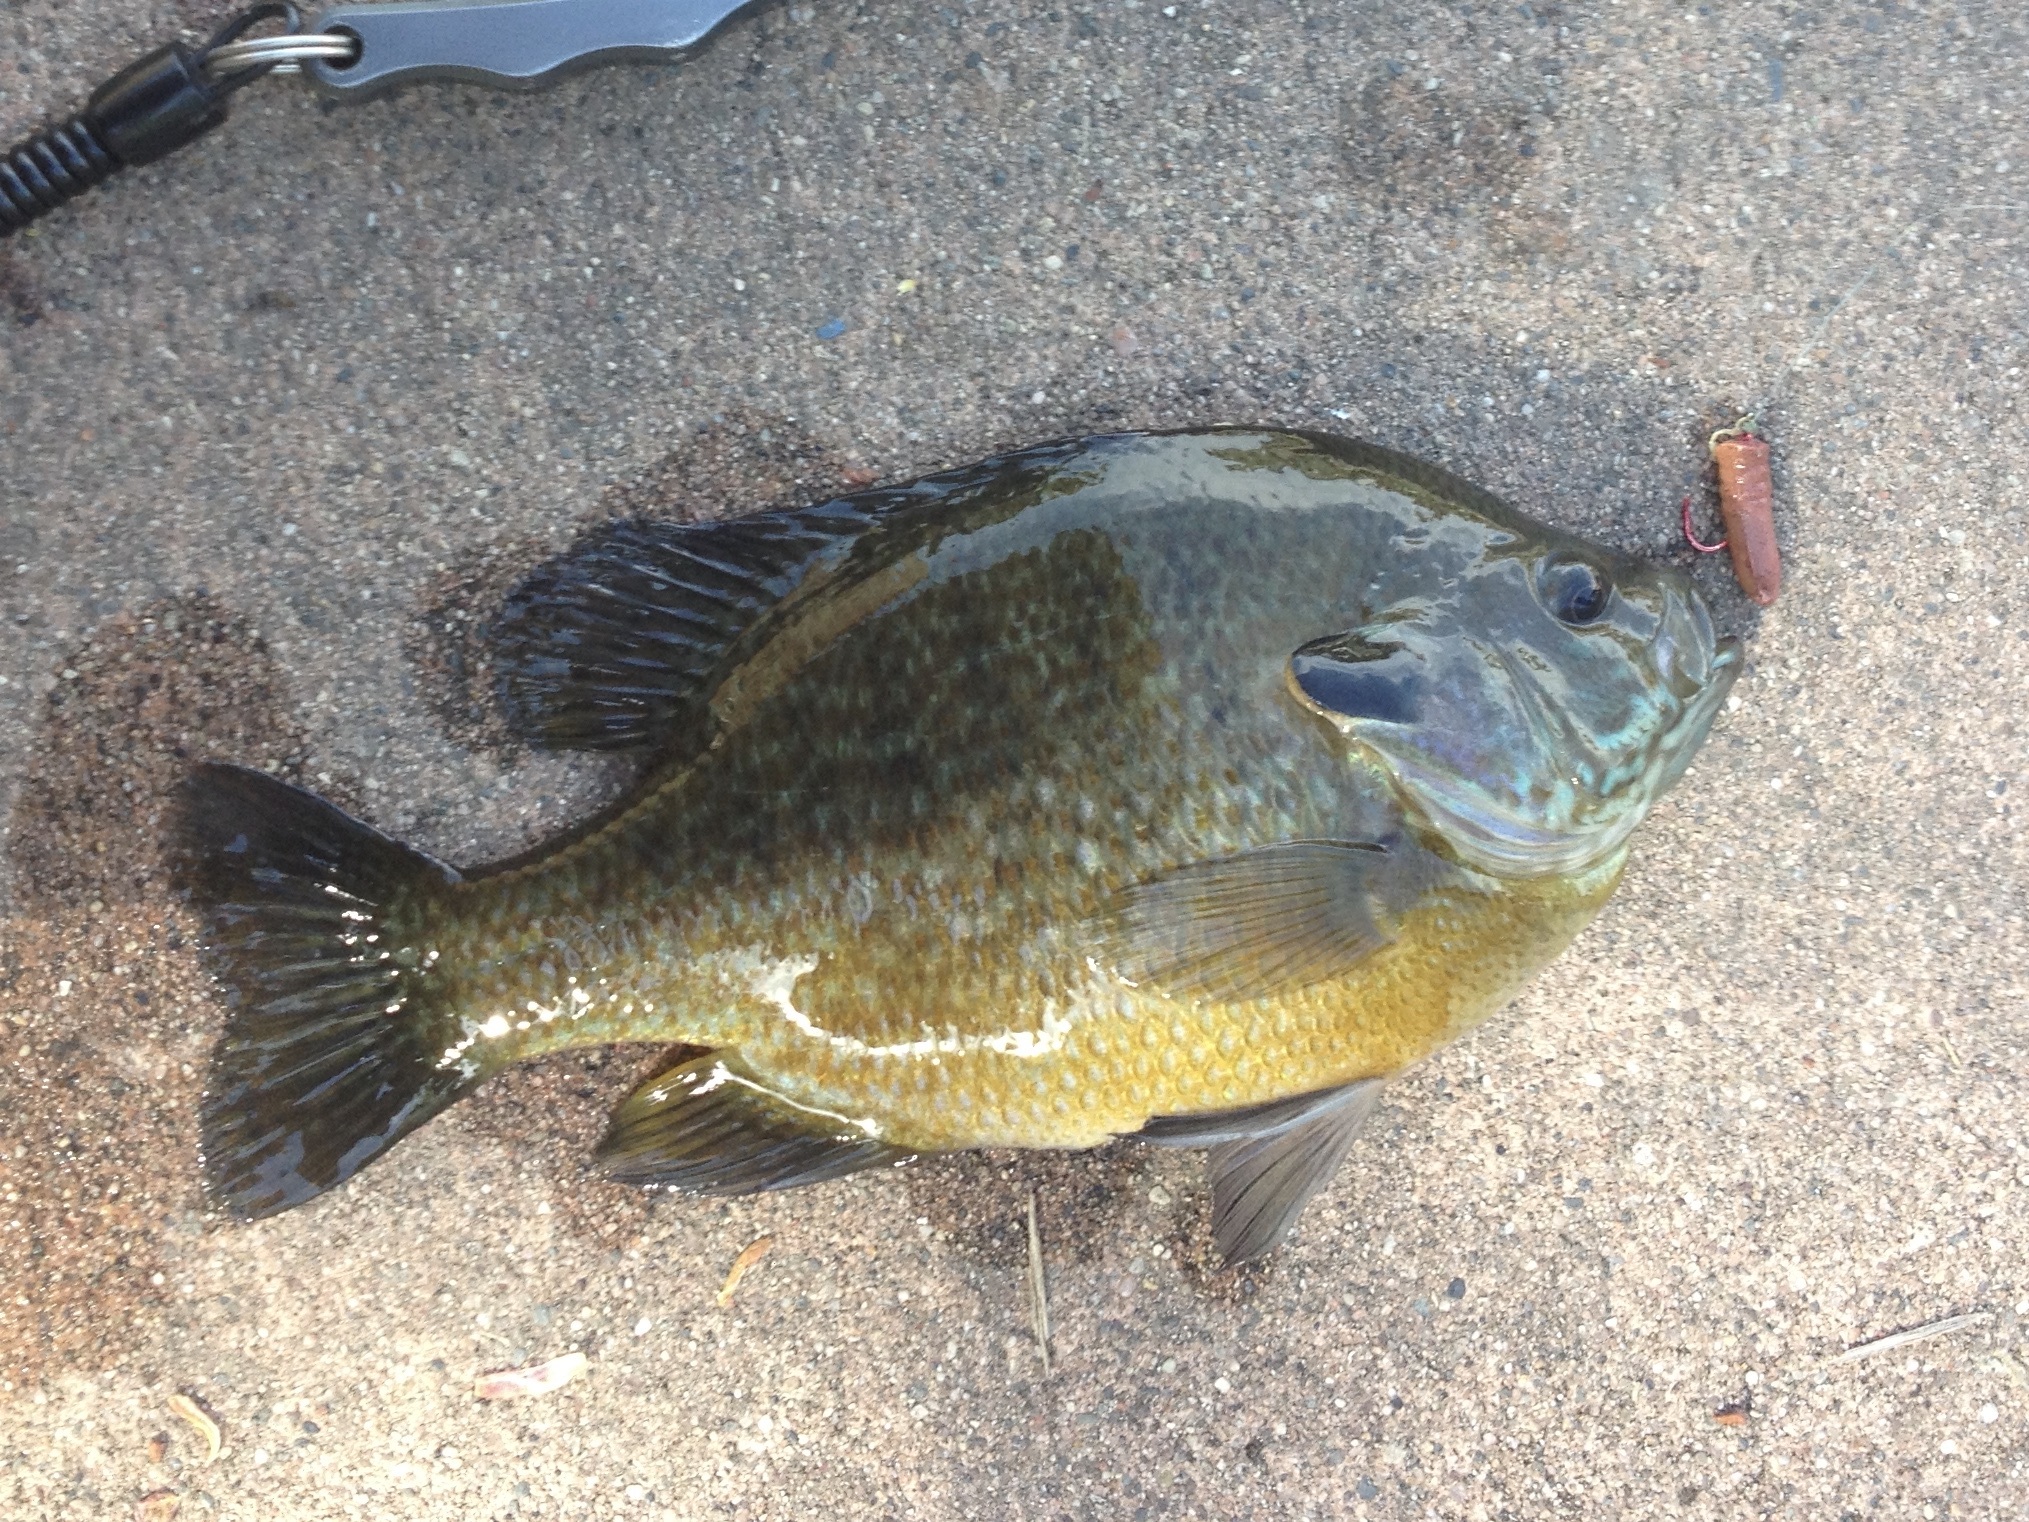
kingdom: Animalia
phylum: Chordata
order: Perciformes
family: Centrarchidae
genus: Lepomis
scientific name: Lepomis
